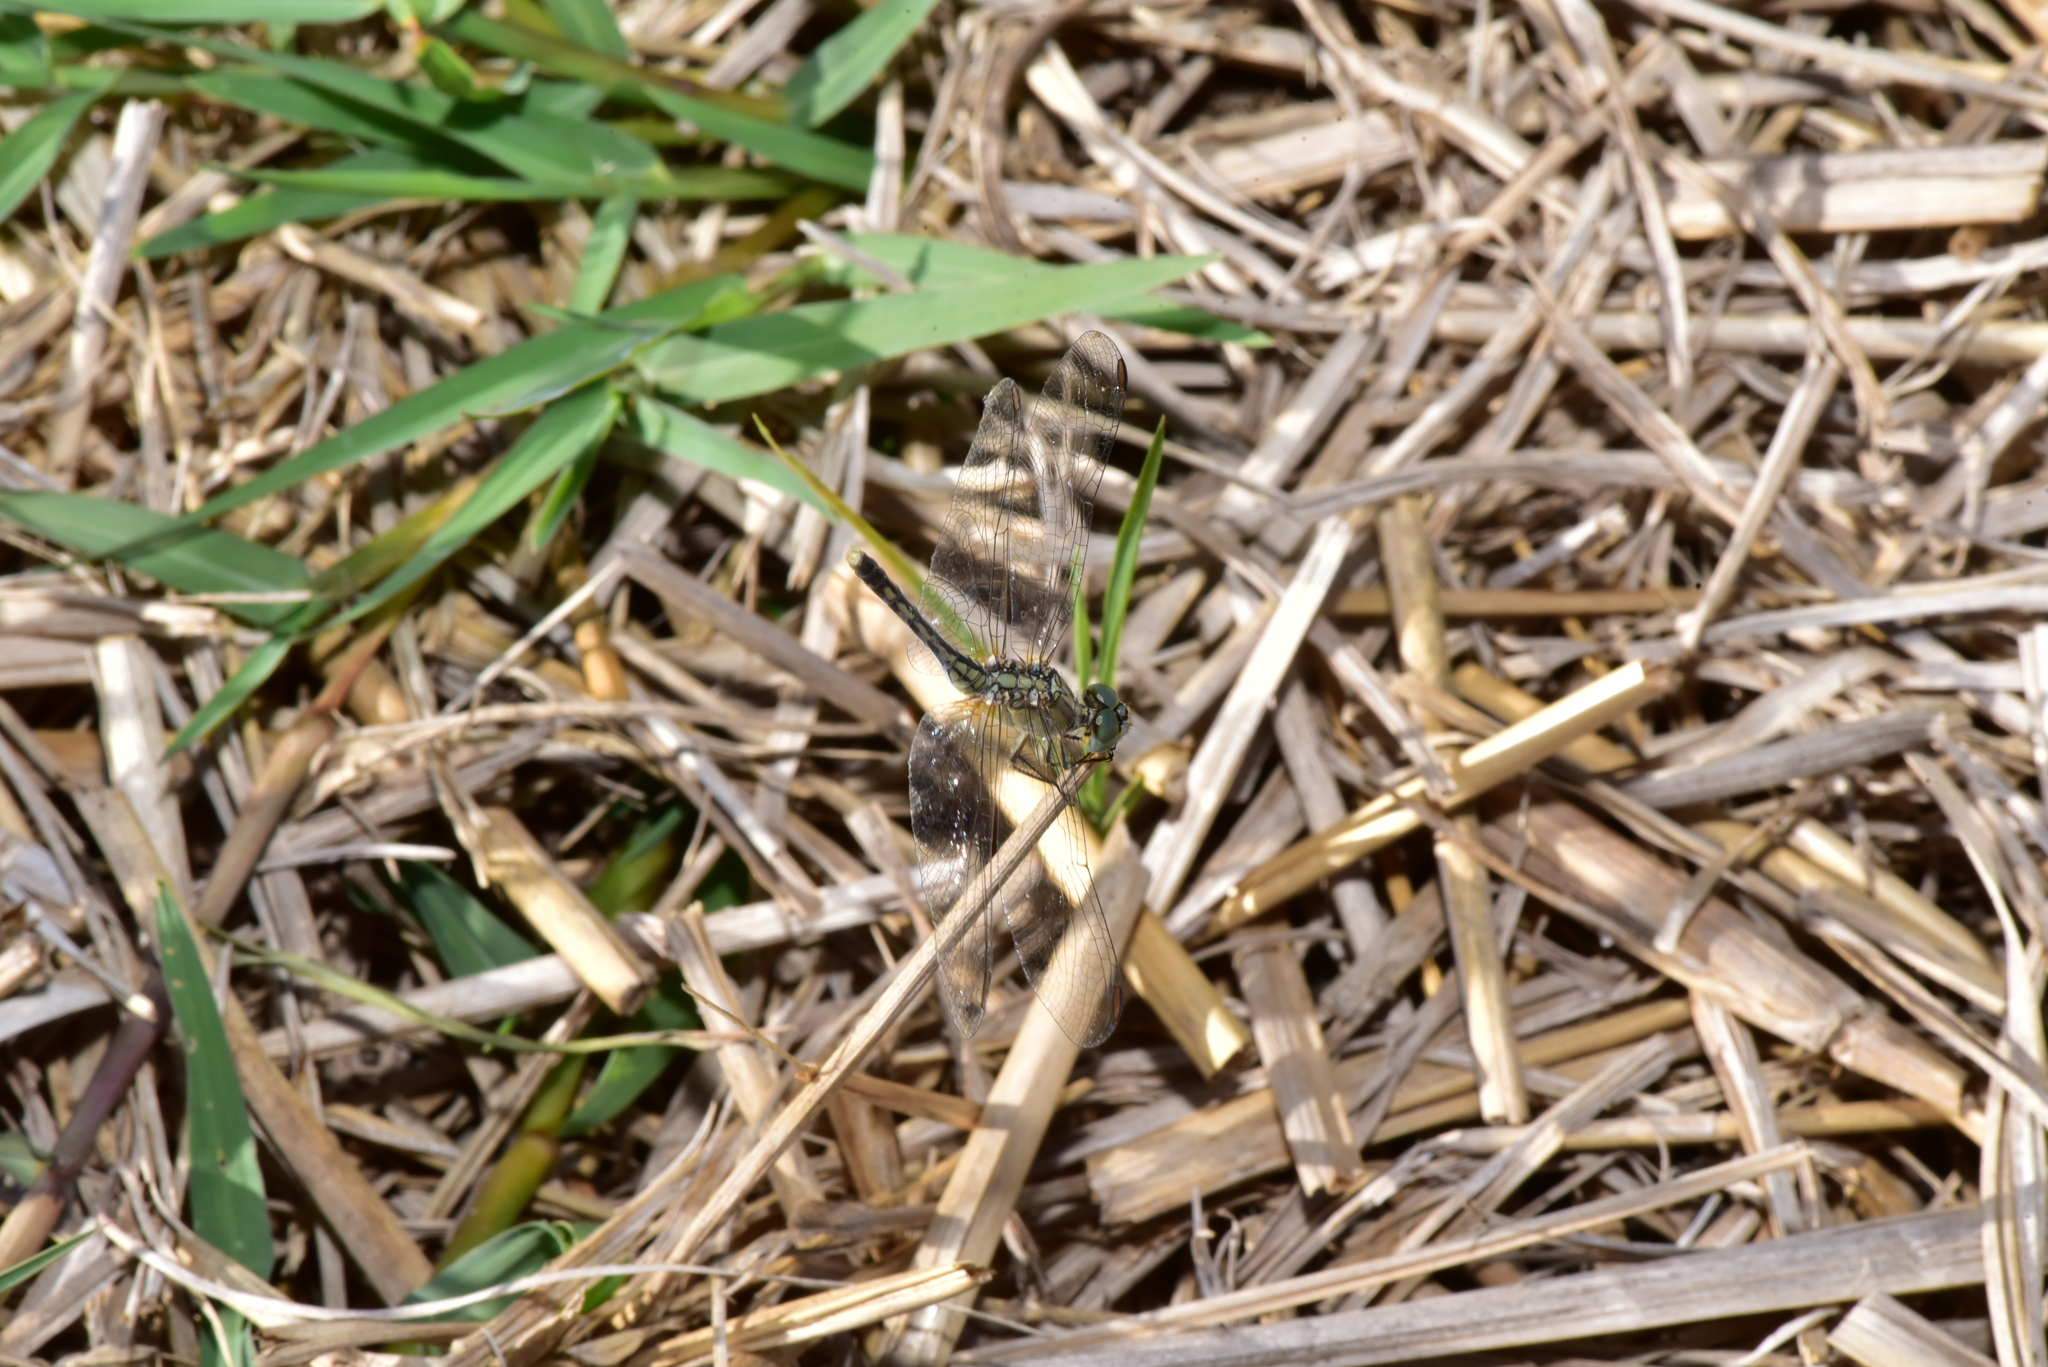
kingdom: Animalia
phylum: Arthropoda
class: Insecta
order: Odonata
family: Libellulidae
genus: Diplacodes
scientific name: Diplacodes trivialis
